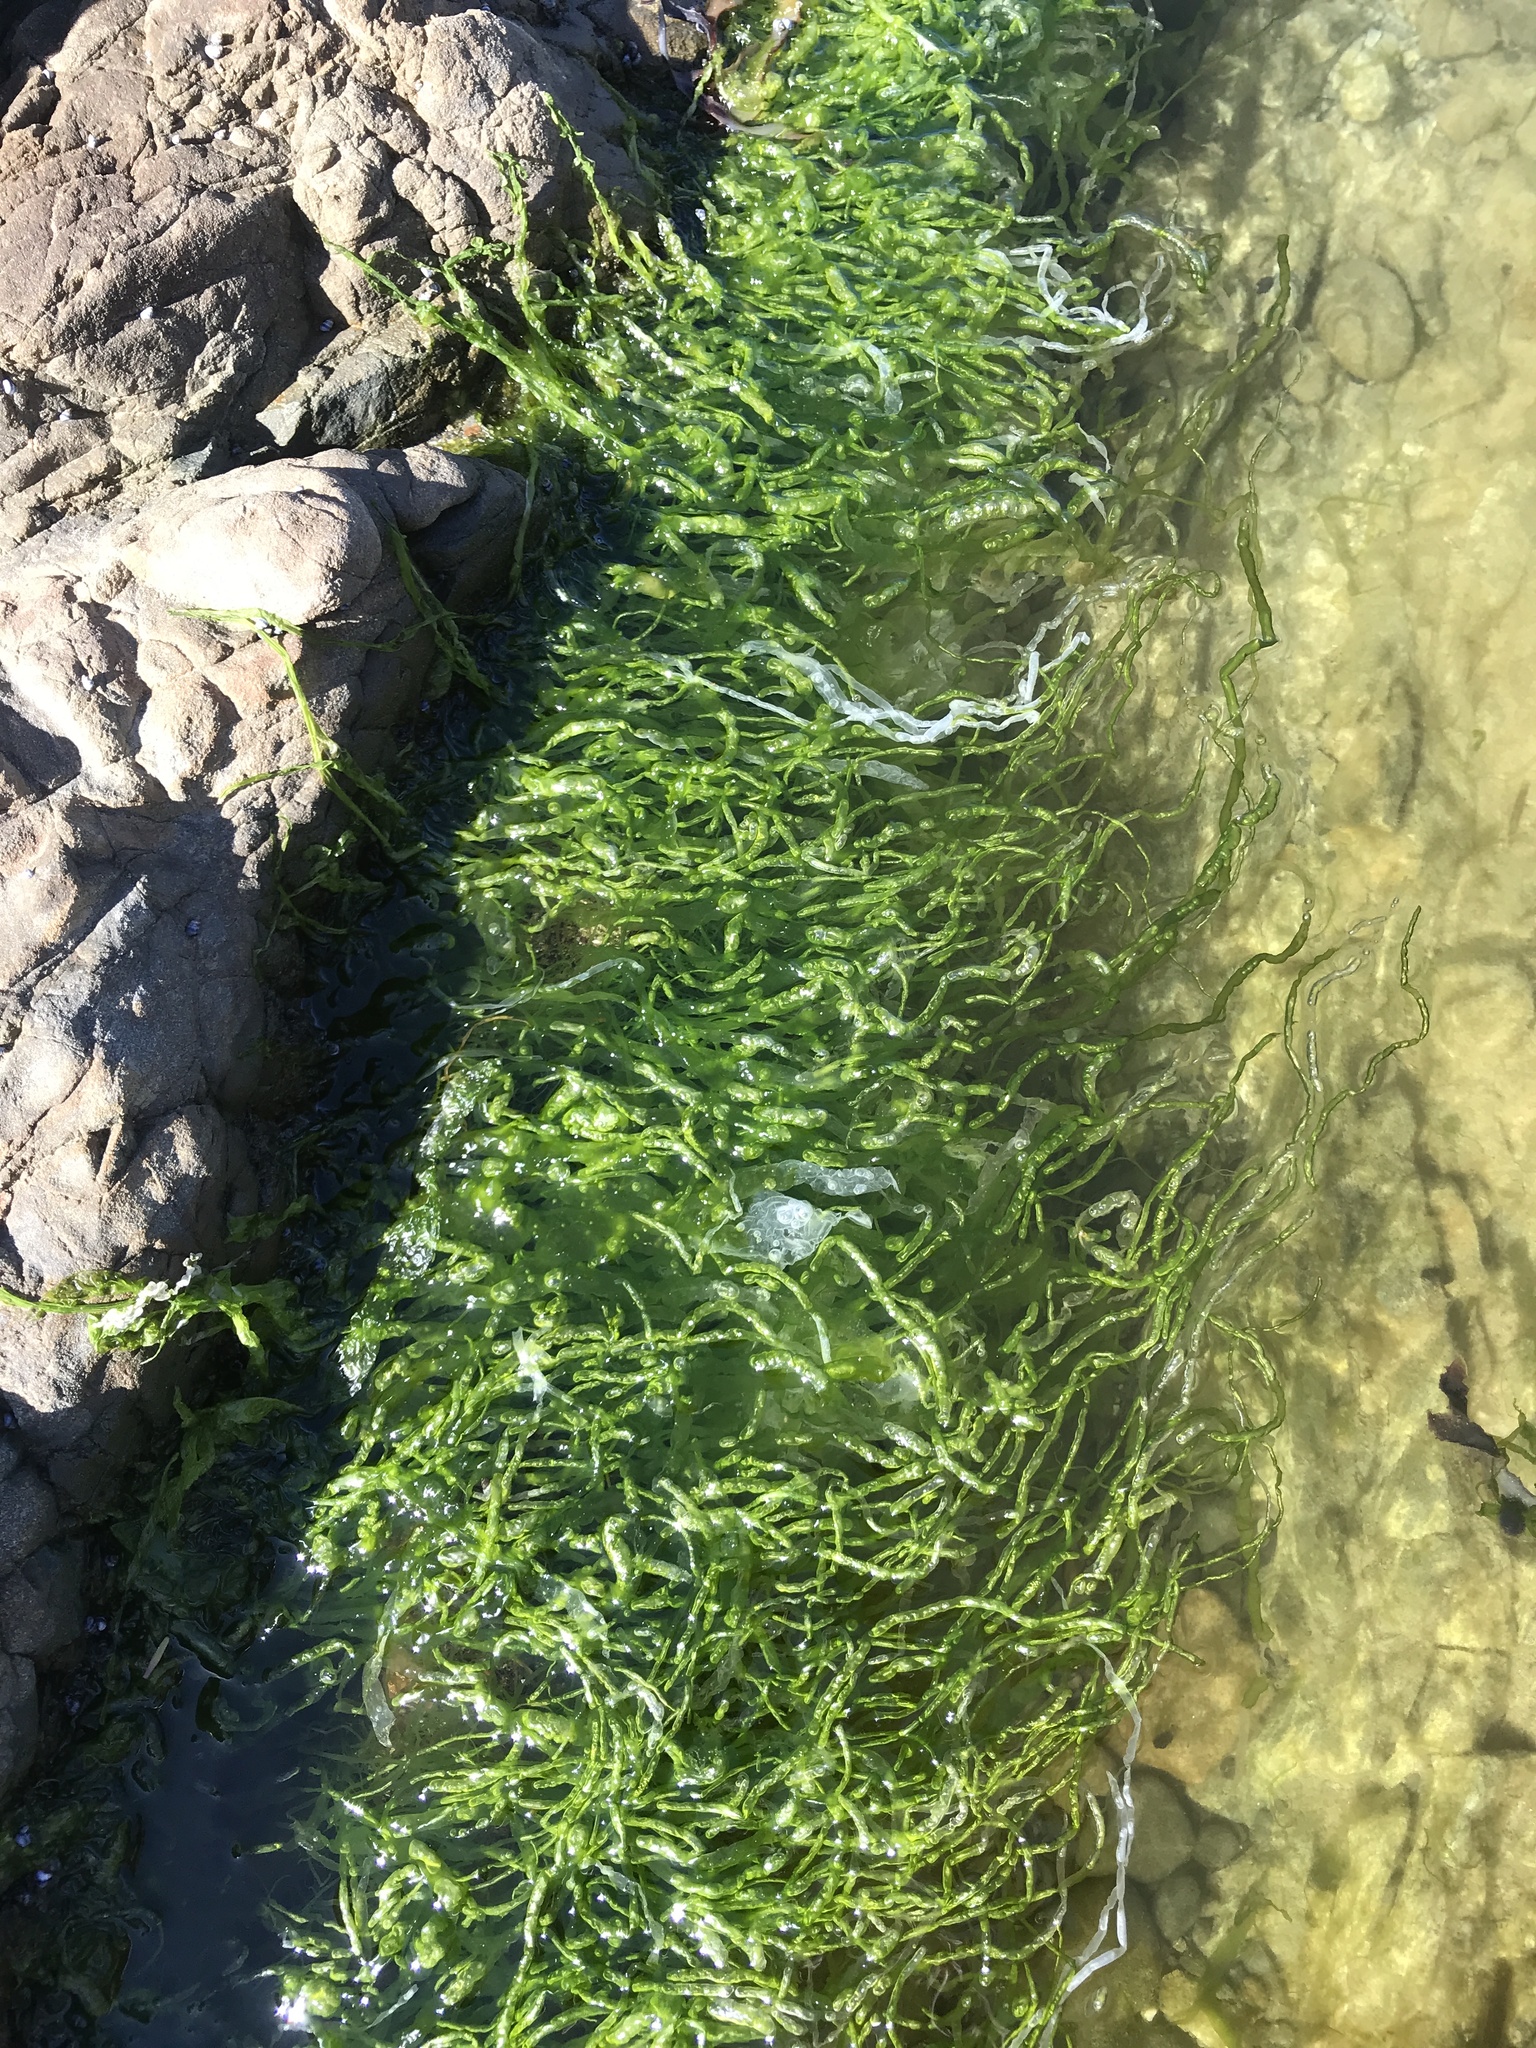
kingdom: Plantae
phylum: Chlorophyta
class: Ulvophyceae
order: Ulvales
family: Ulvaceae
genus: Ulva
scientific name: Ulva intestinalis
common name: Gut weed
